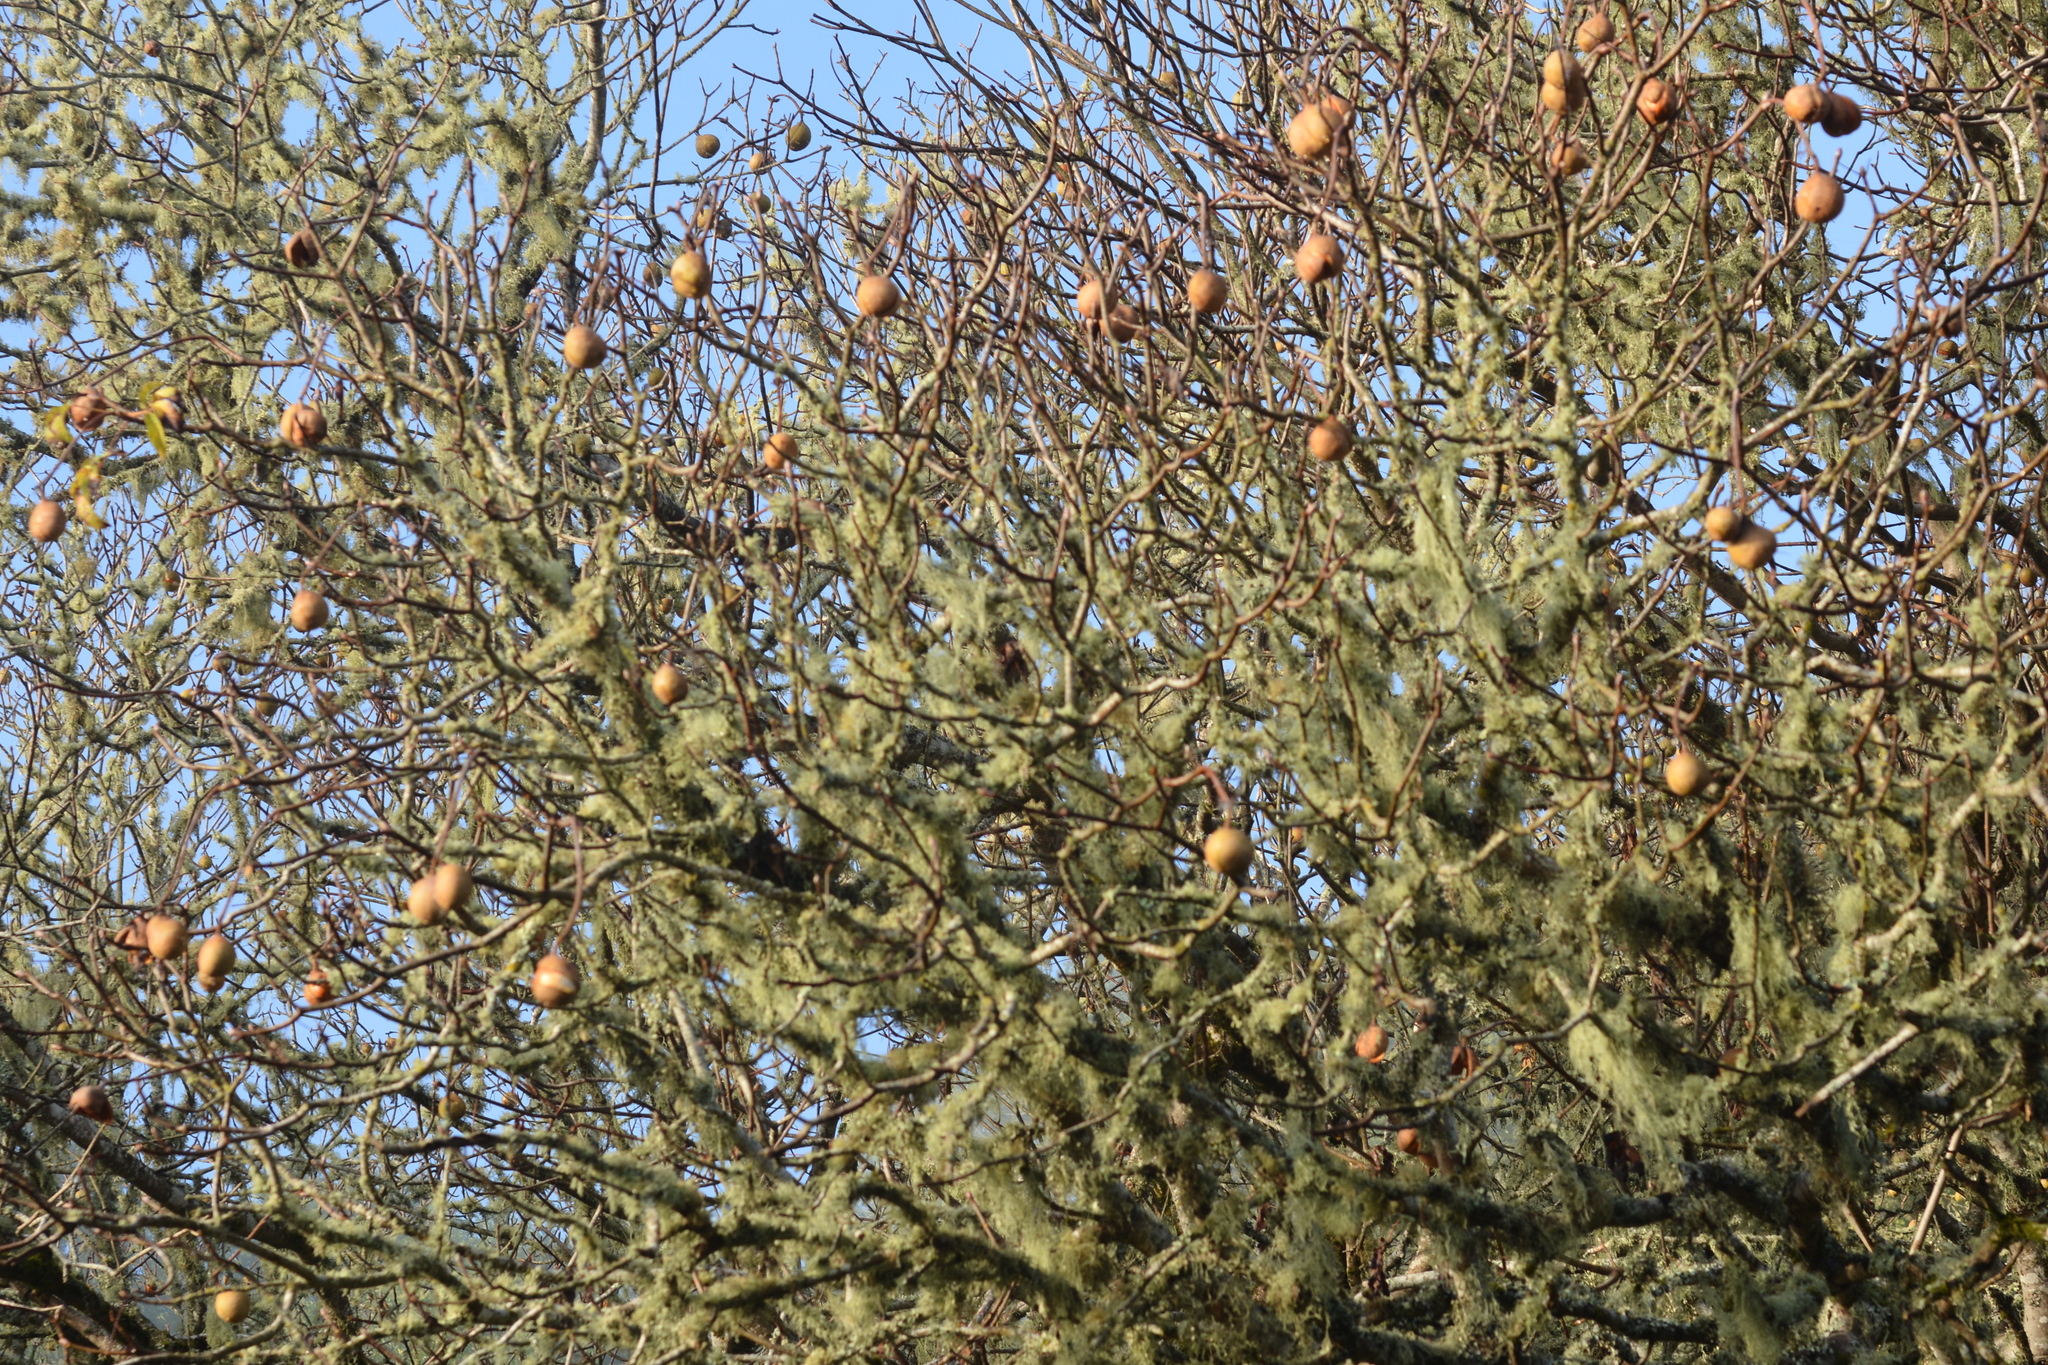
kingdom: Plantae
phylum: Tracheophyta
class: Magnoliopsida
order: Sapindales
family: Sapindaceae
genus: Aesculus
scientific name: Aesculus californica
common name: California buckeye
